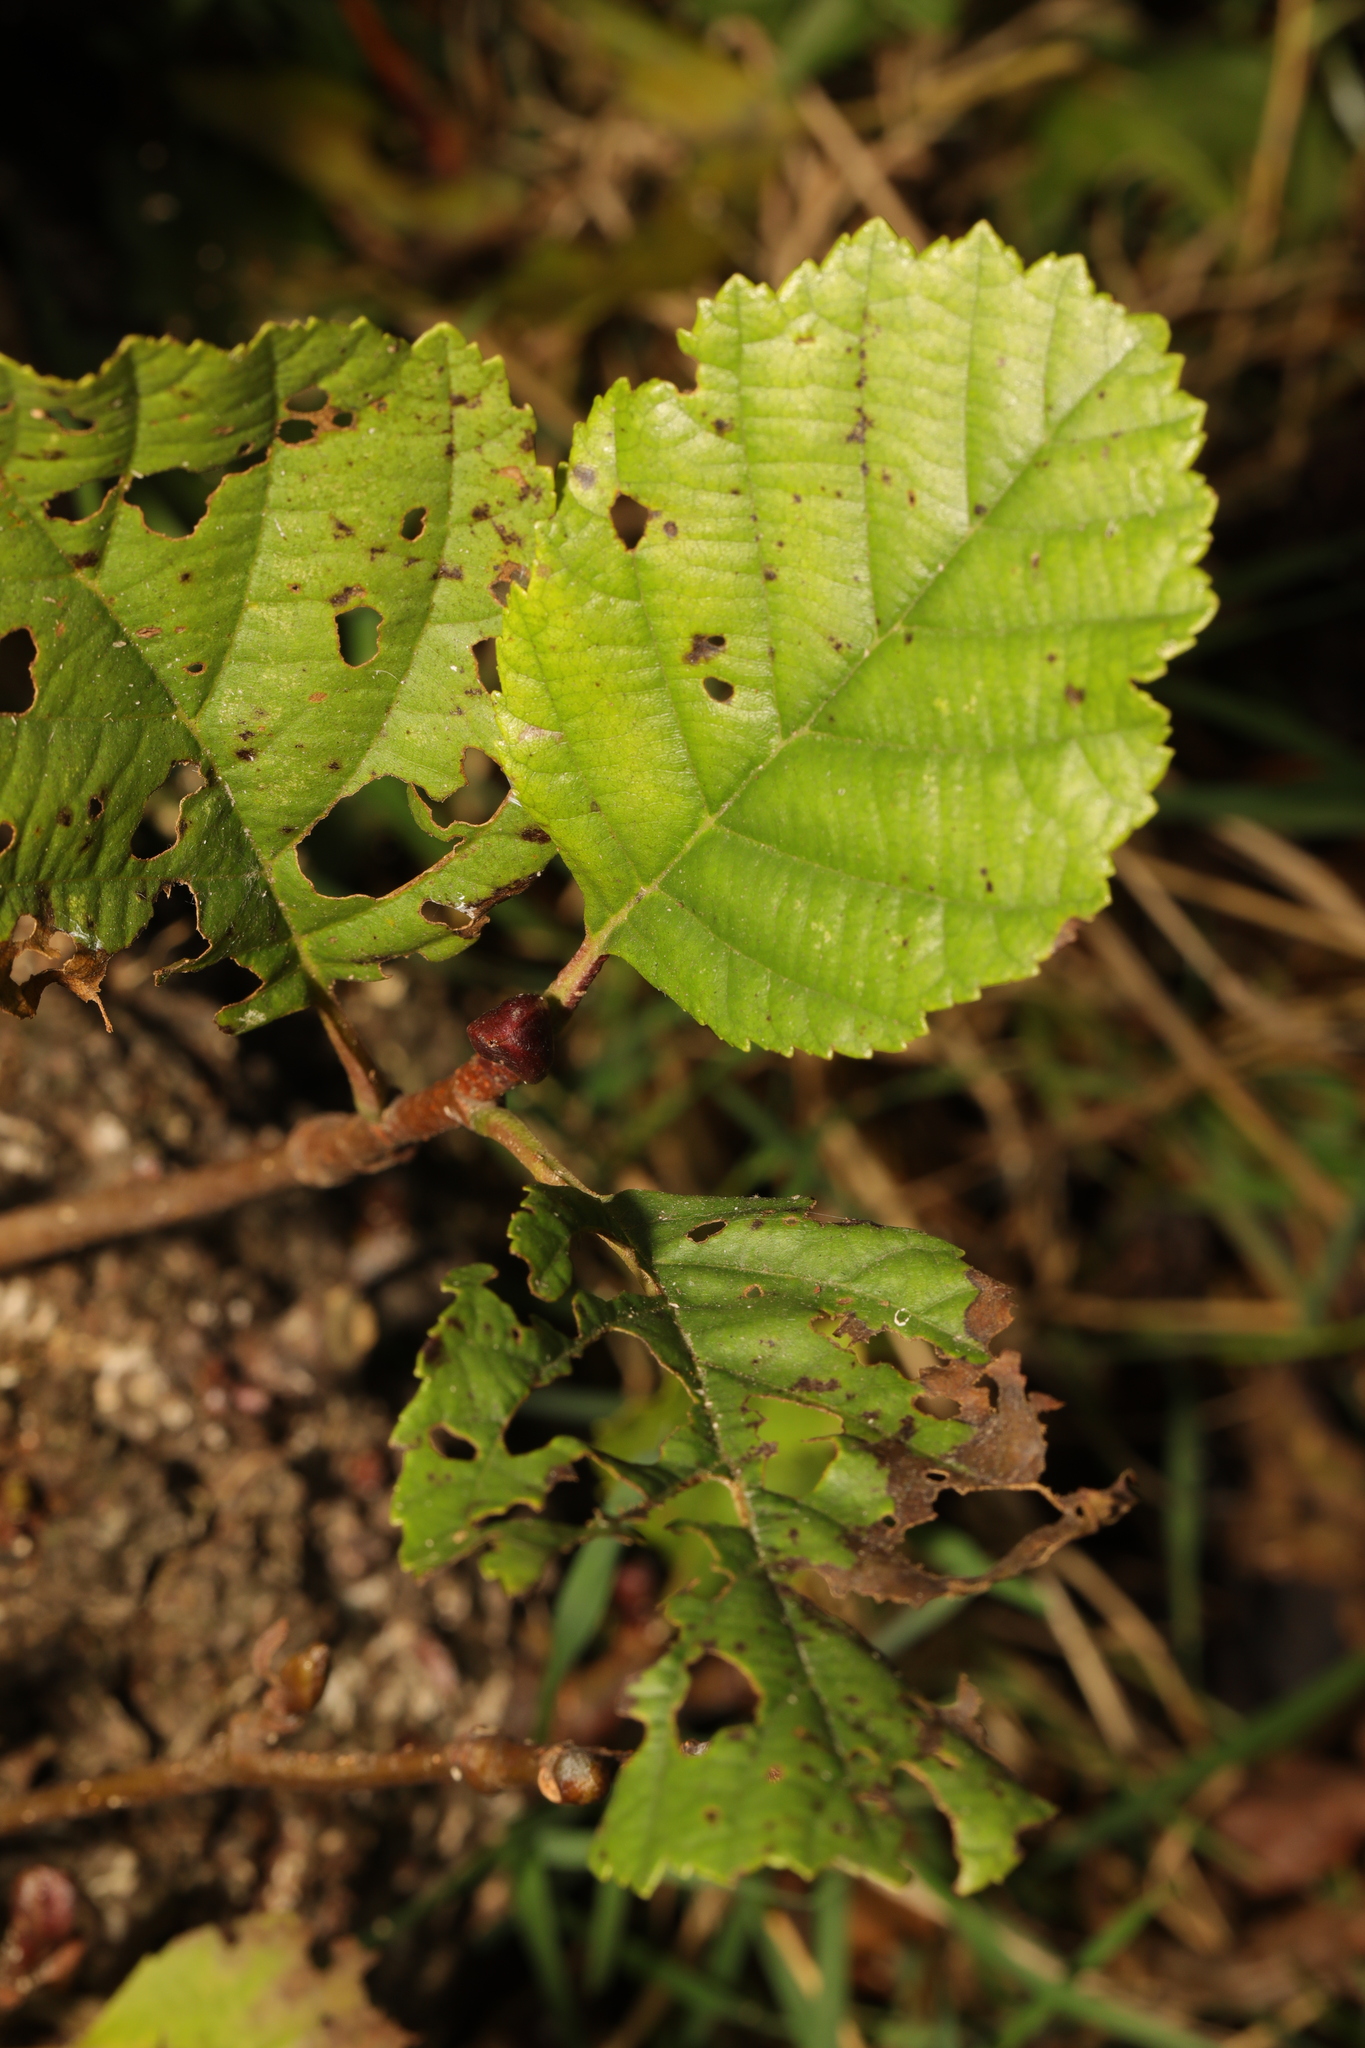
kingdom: Plantae
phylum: Tracheophyta
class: Magnoliopsida
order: Fagales
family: Betulaceae
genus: Alnus
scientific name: Alnus glutinosa
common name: Black alder
